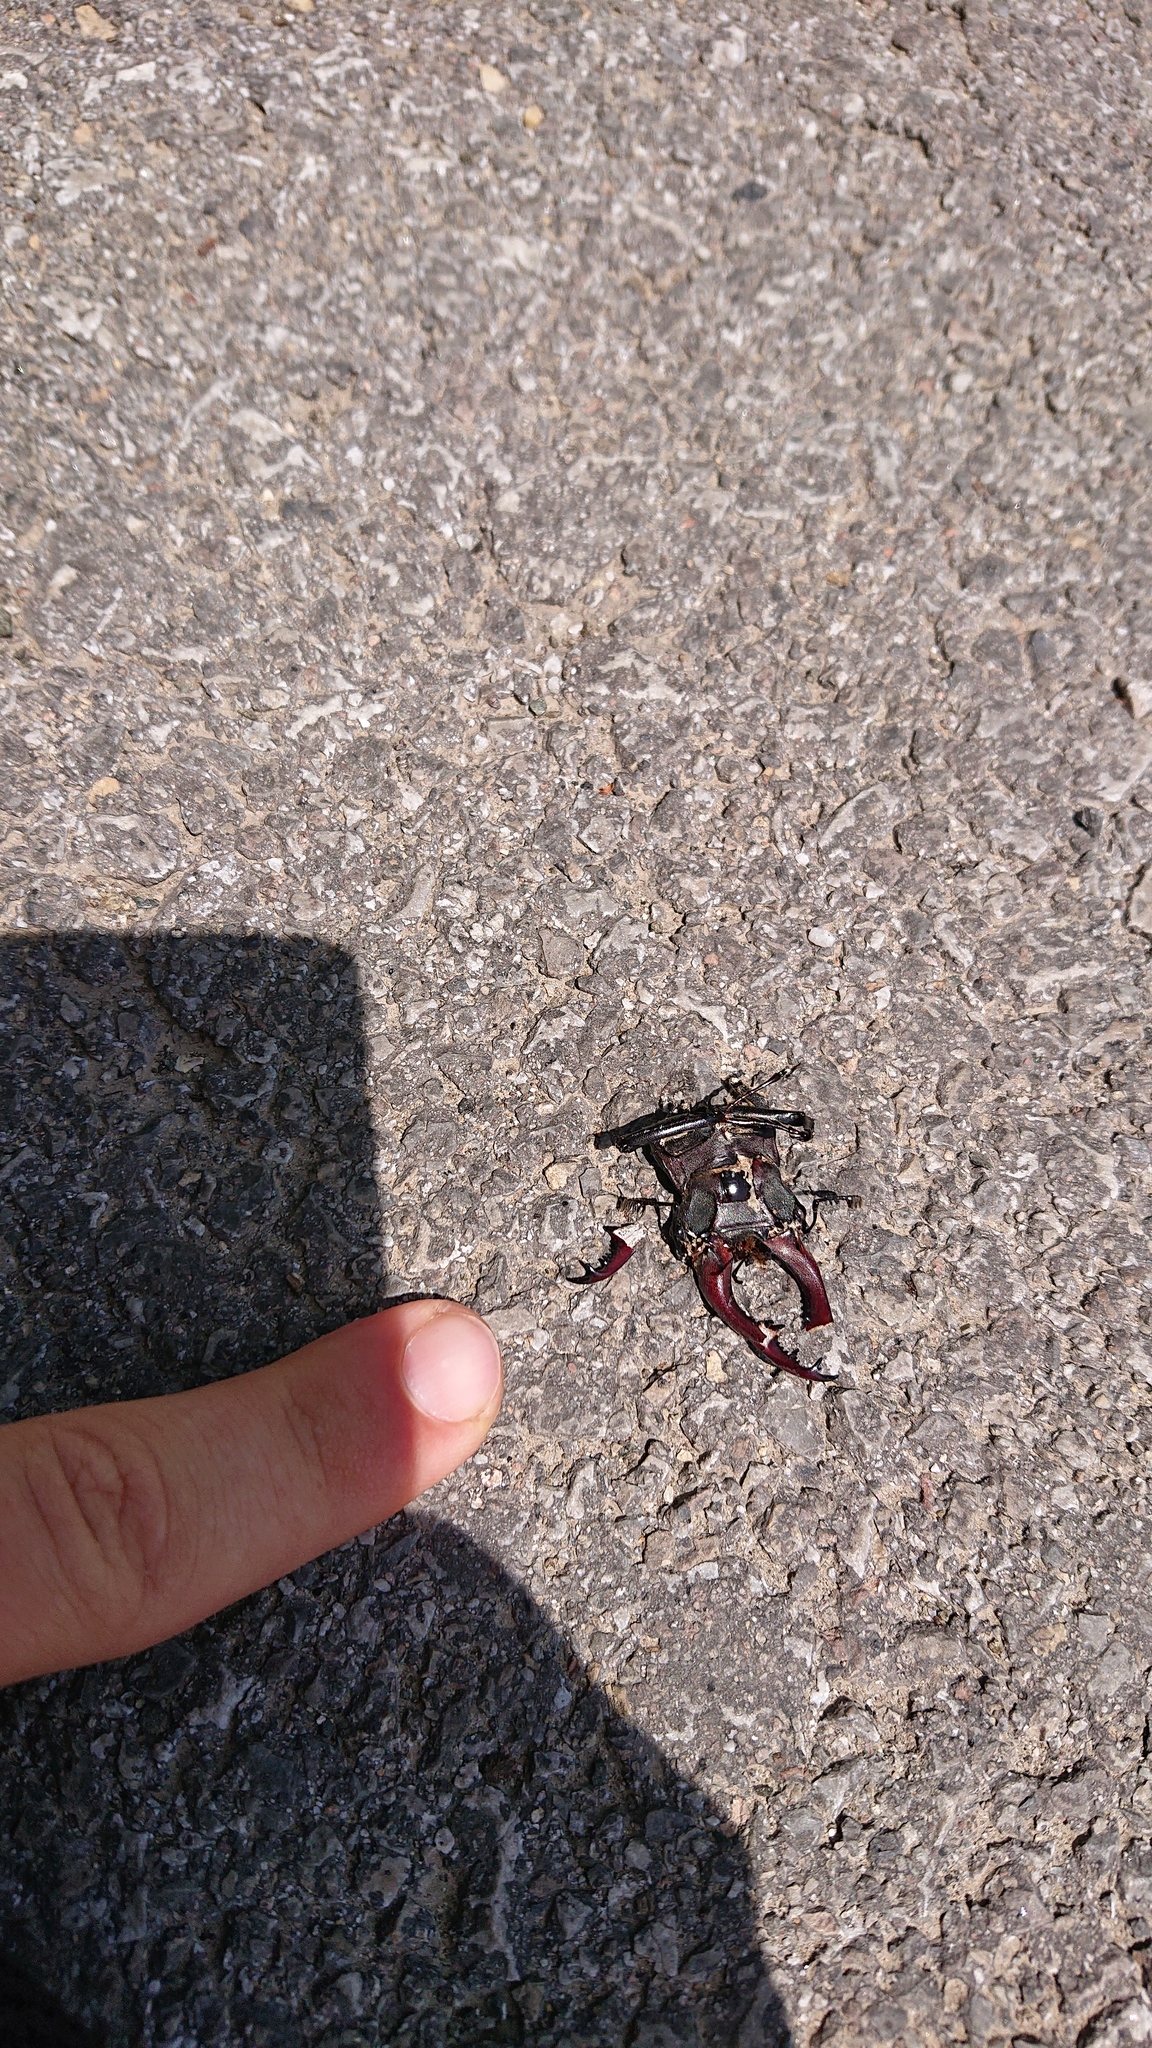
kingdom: Animalia
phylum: Arthropoda
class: Insecta
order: Coleoptera
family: Lucanidae
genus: Lucanus
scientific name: Lucanus cervus
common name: Stag beetle
